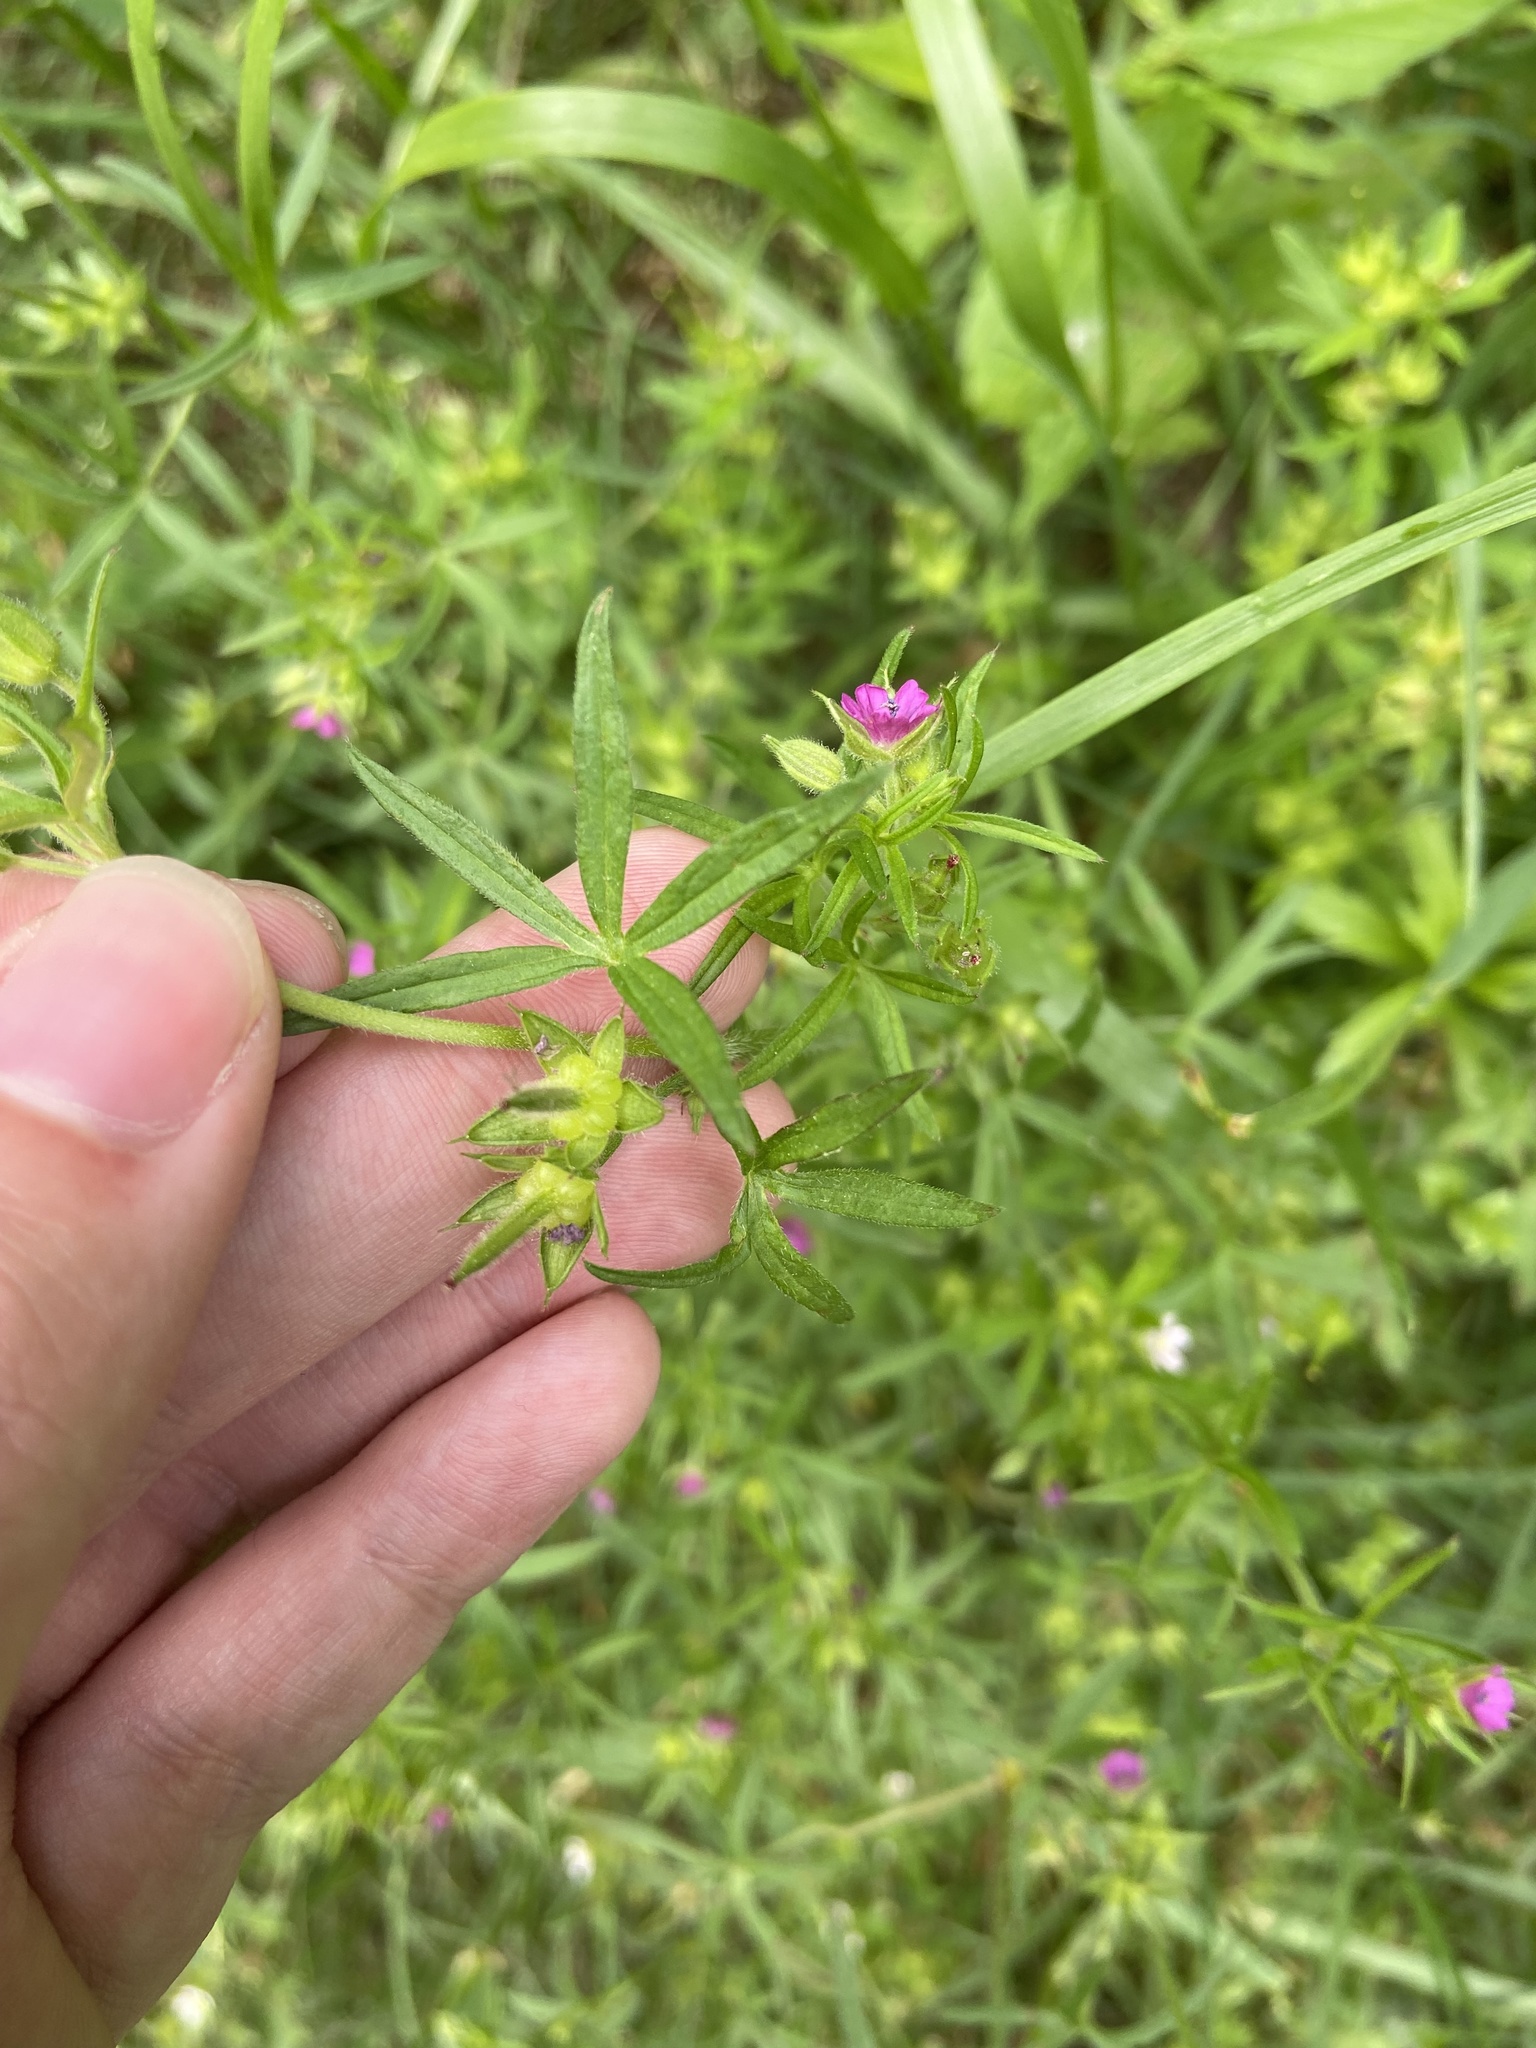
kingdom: Plantae
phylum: Tracheophyta
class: Magnoliopsida
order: Geraniales
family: Geraniaceae
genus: Geranium
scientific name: Geranium dissectum
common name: Cut-leaved crane's-bill
